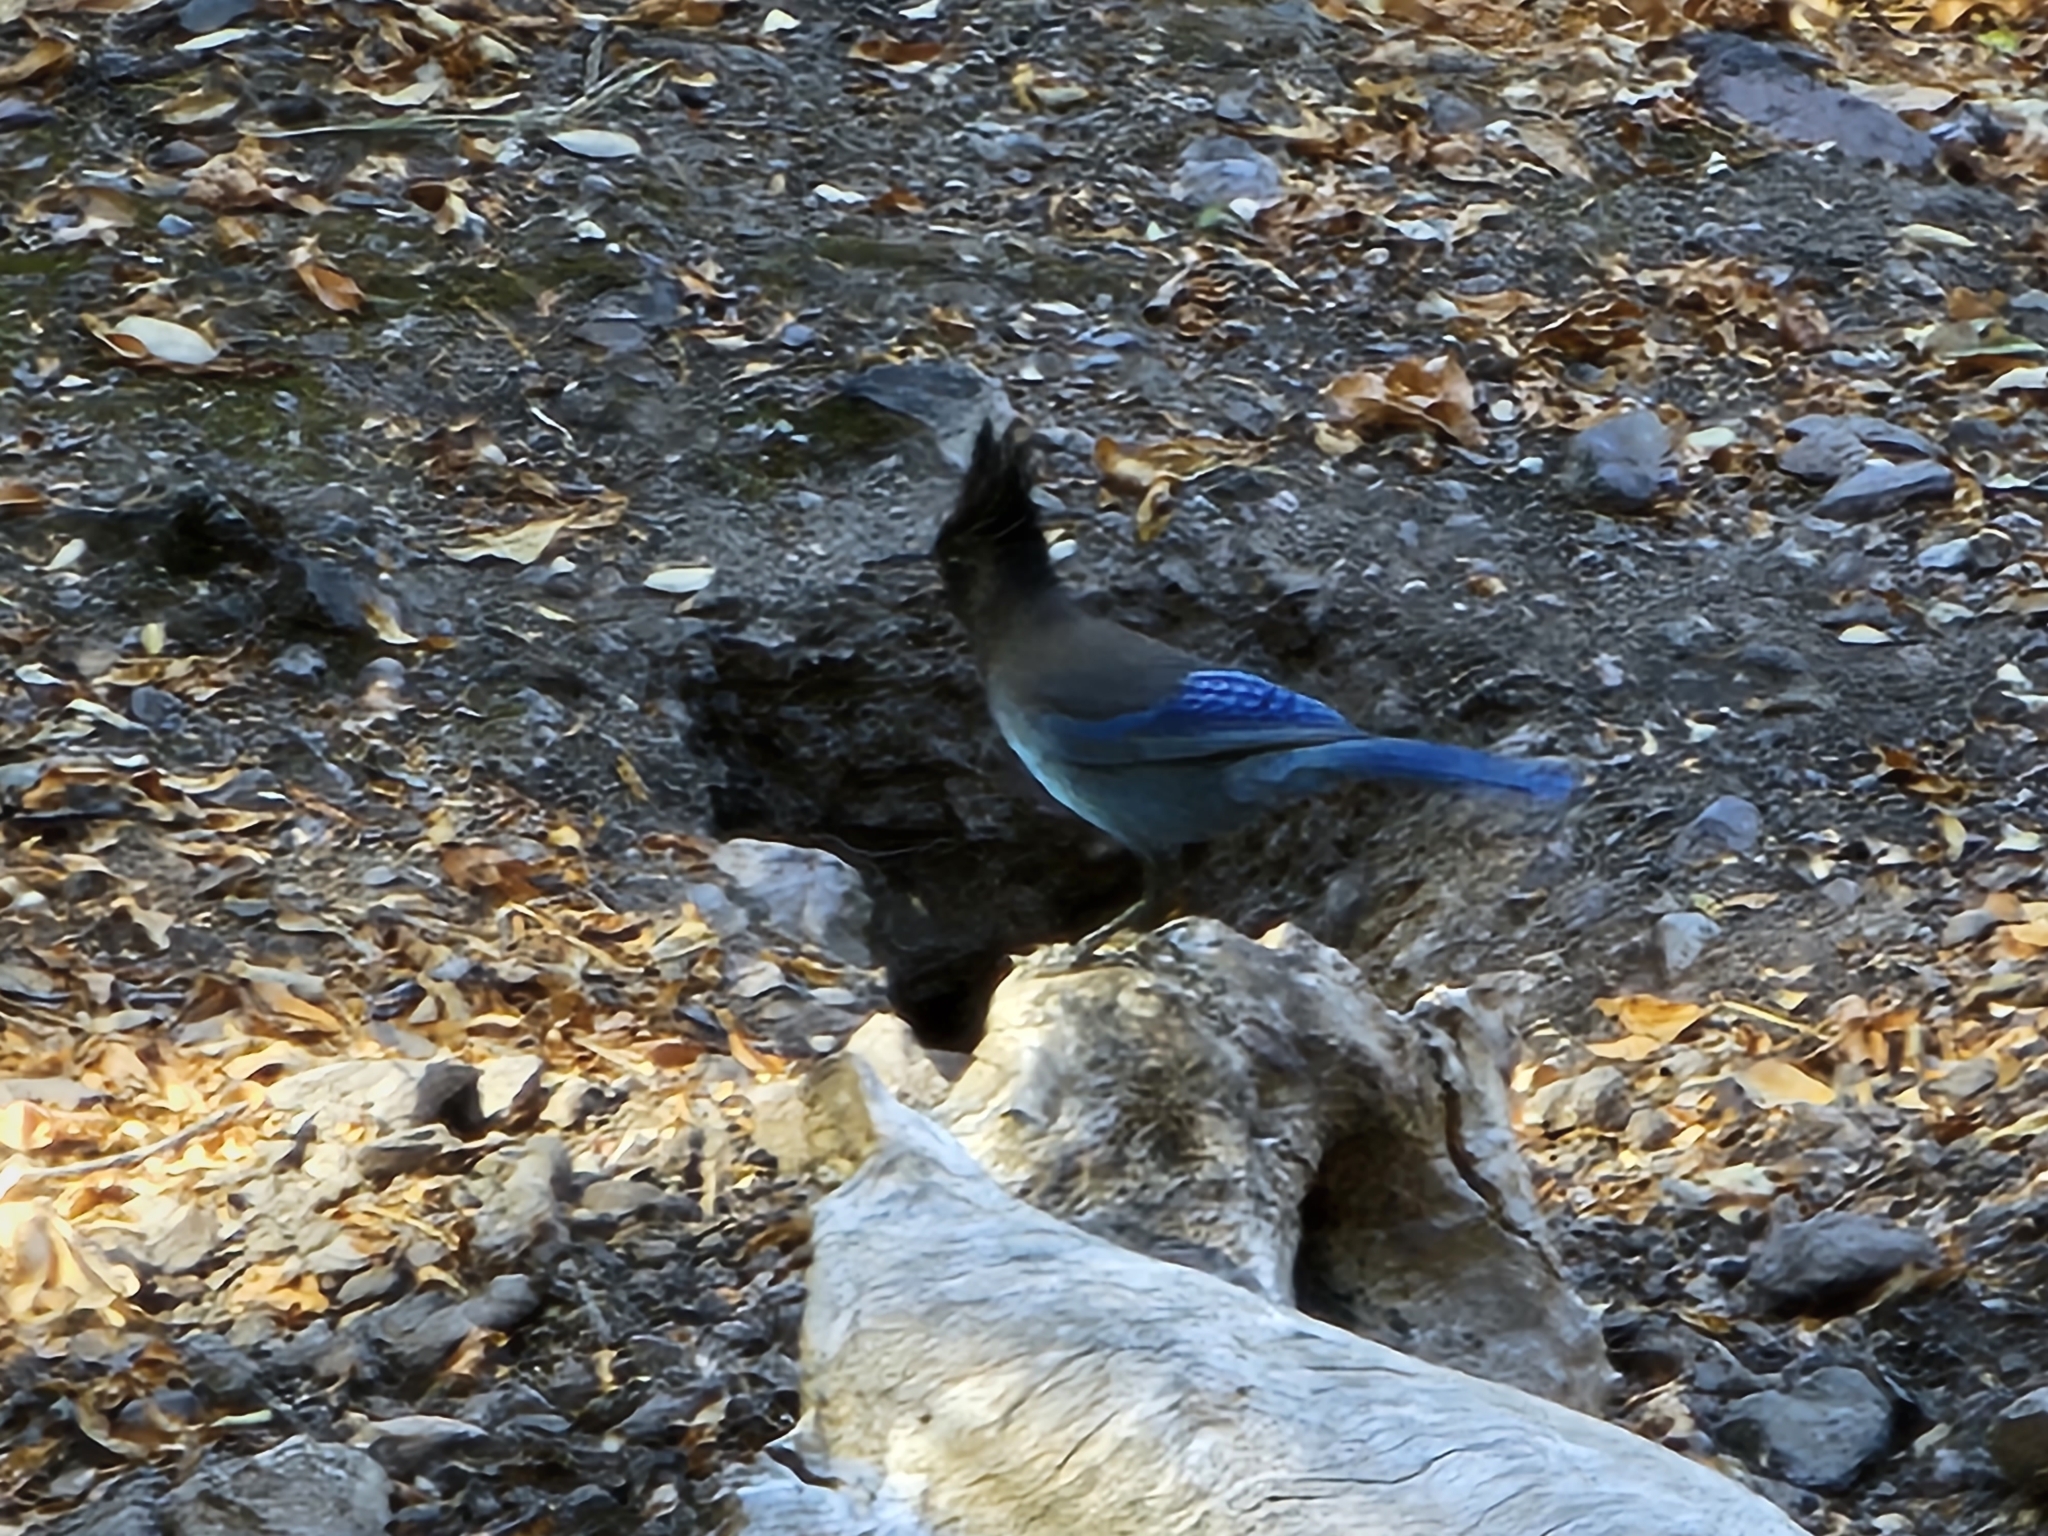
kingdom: Animalia
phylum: Chordata
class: Aves
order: Passeriformes
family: Corvidae
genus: Cyanocitta
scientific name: Cyanocitta stelleri
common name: Steller's jay
